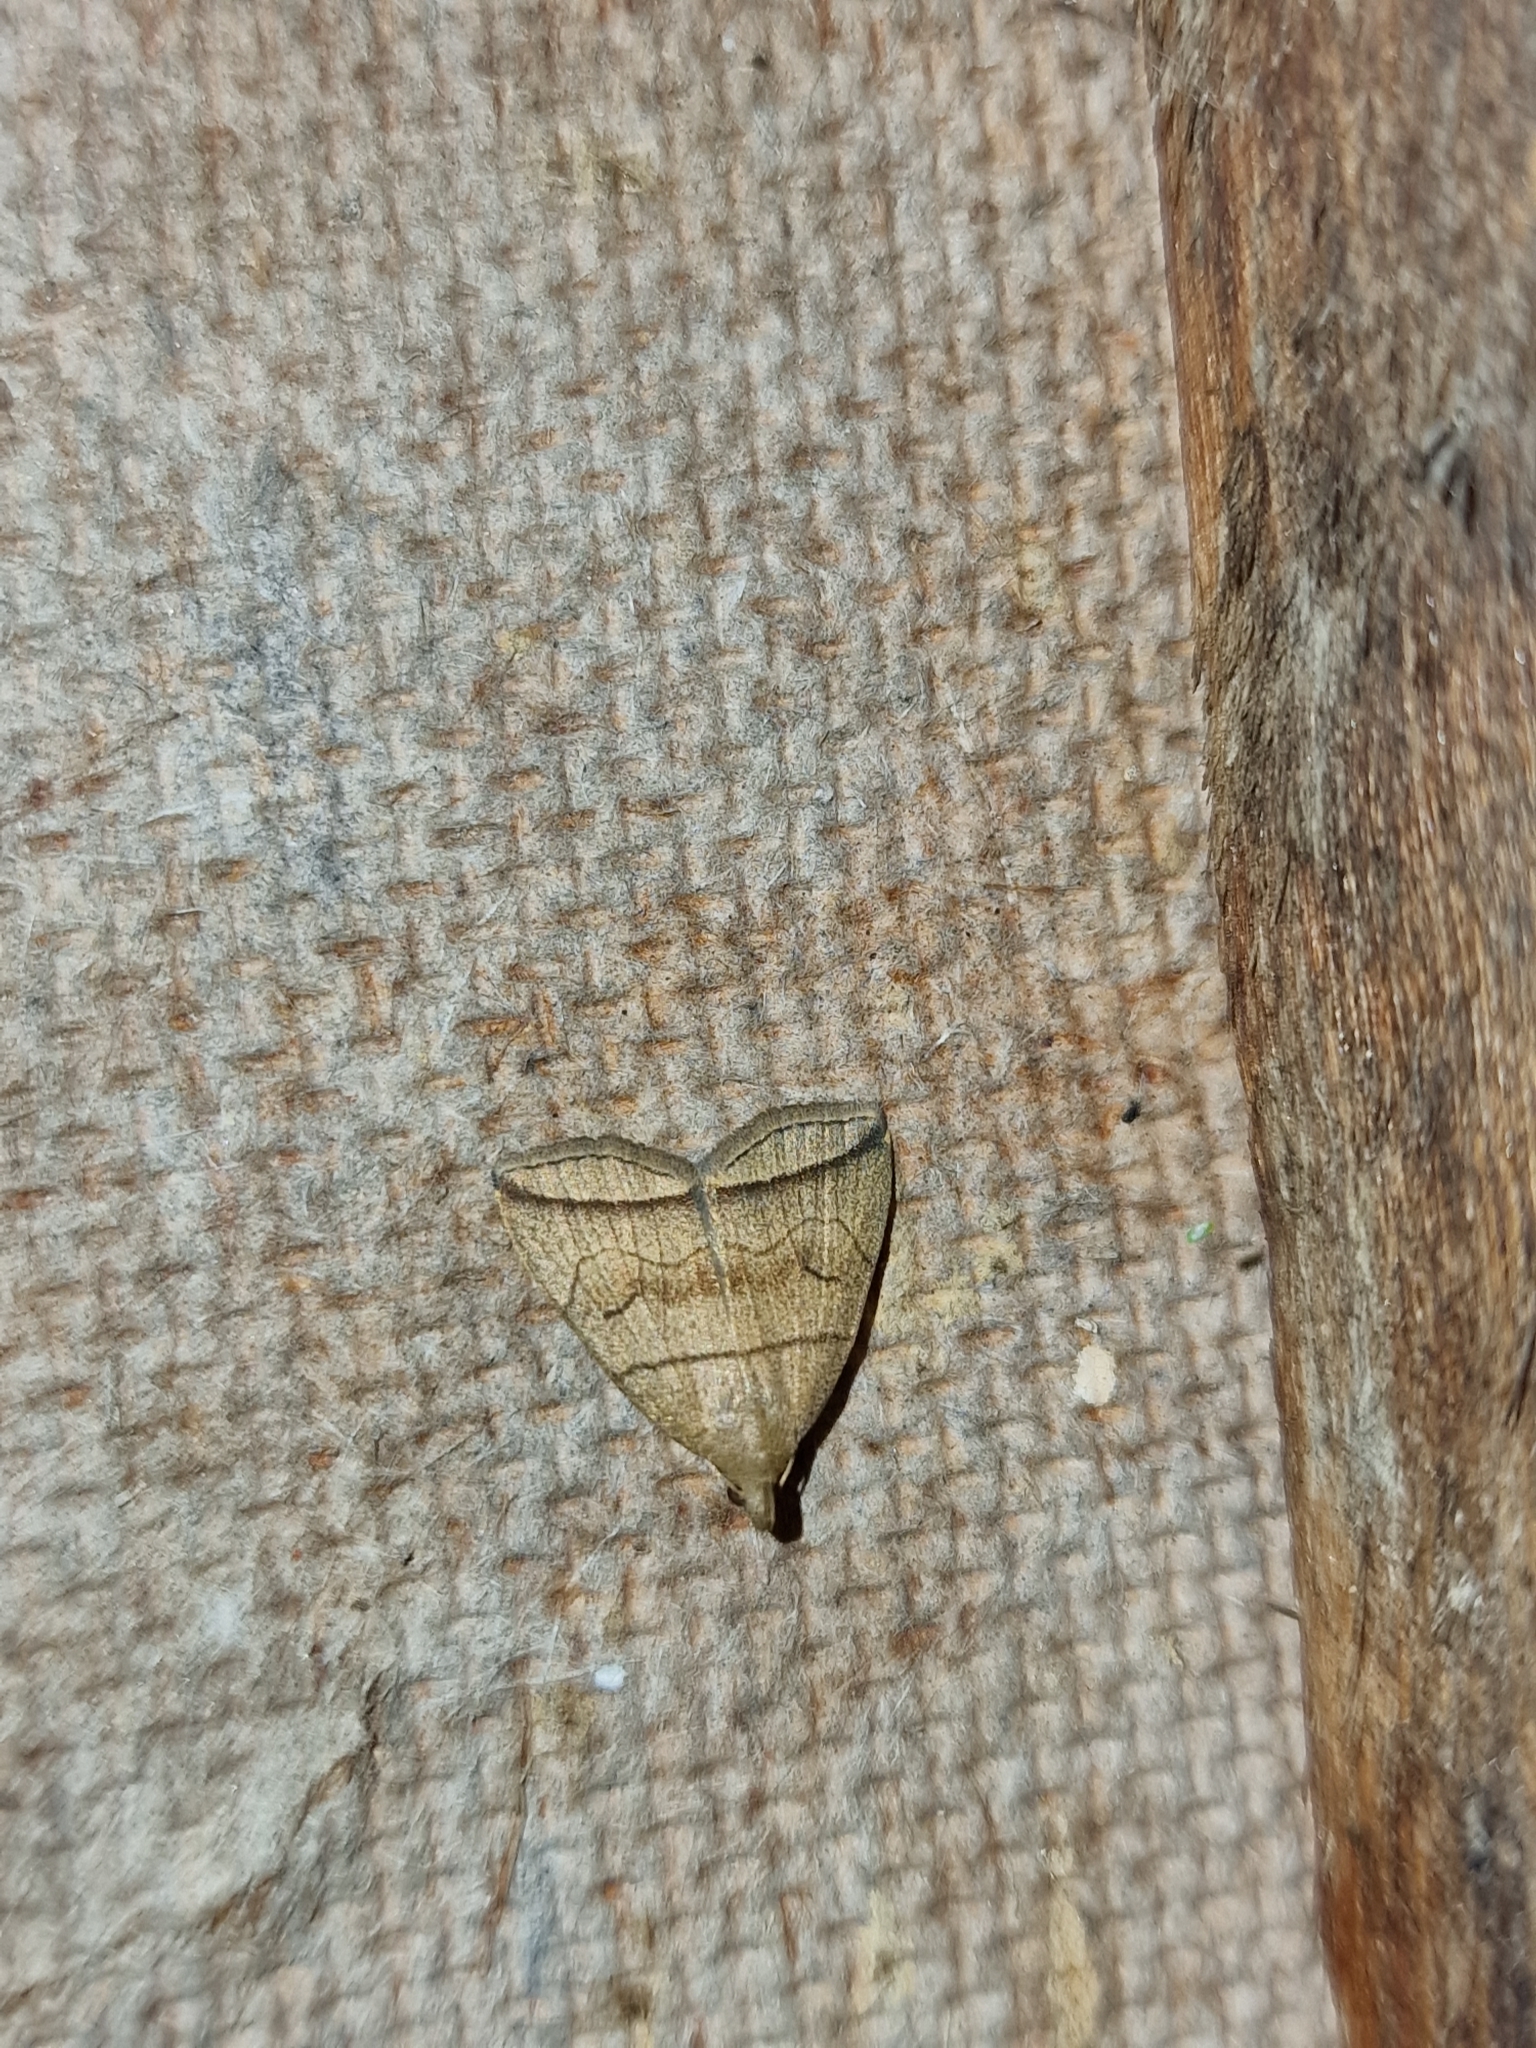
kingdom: Animalia
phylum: Arthropoda
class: Insecta
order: Lepidoptera
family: Erebidae
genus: Herminia
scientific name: Herminia grisealis
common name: Small fan-foot
